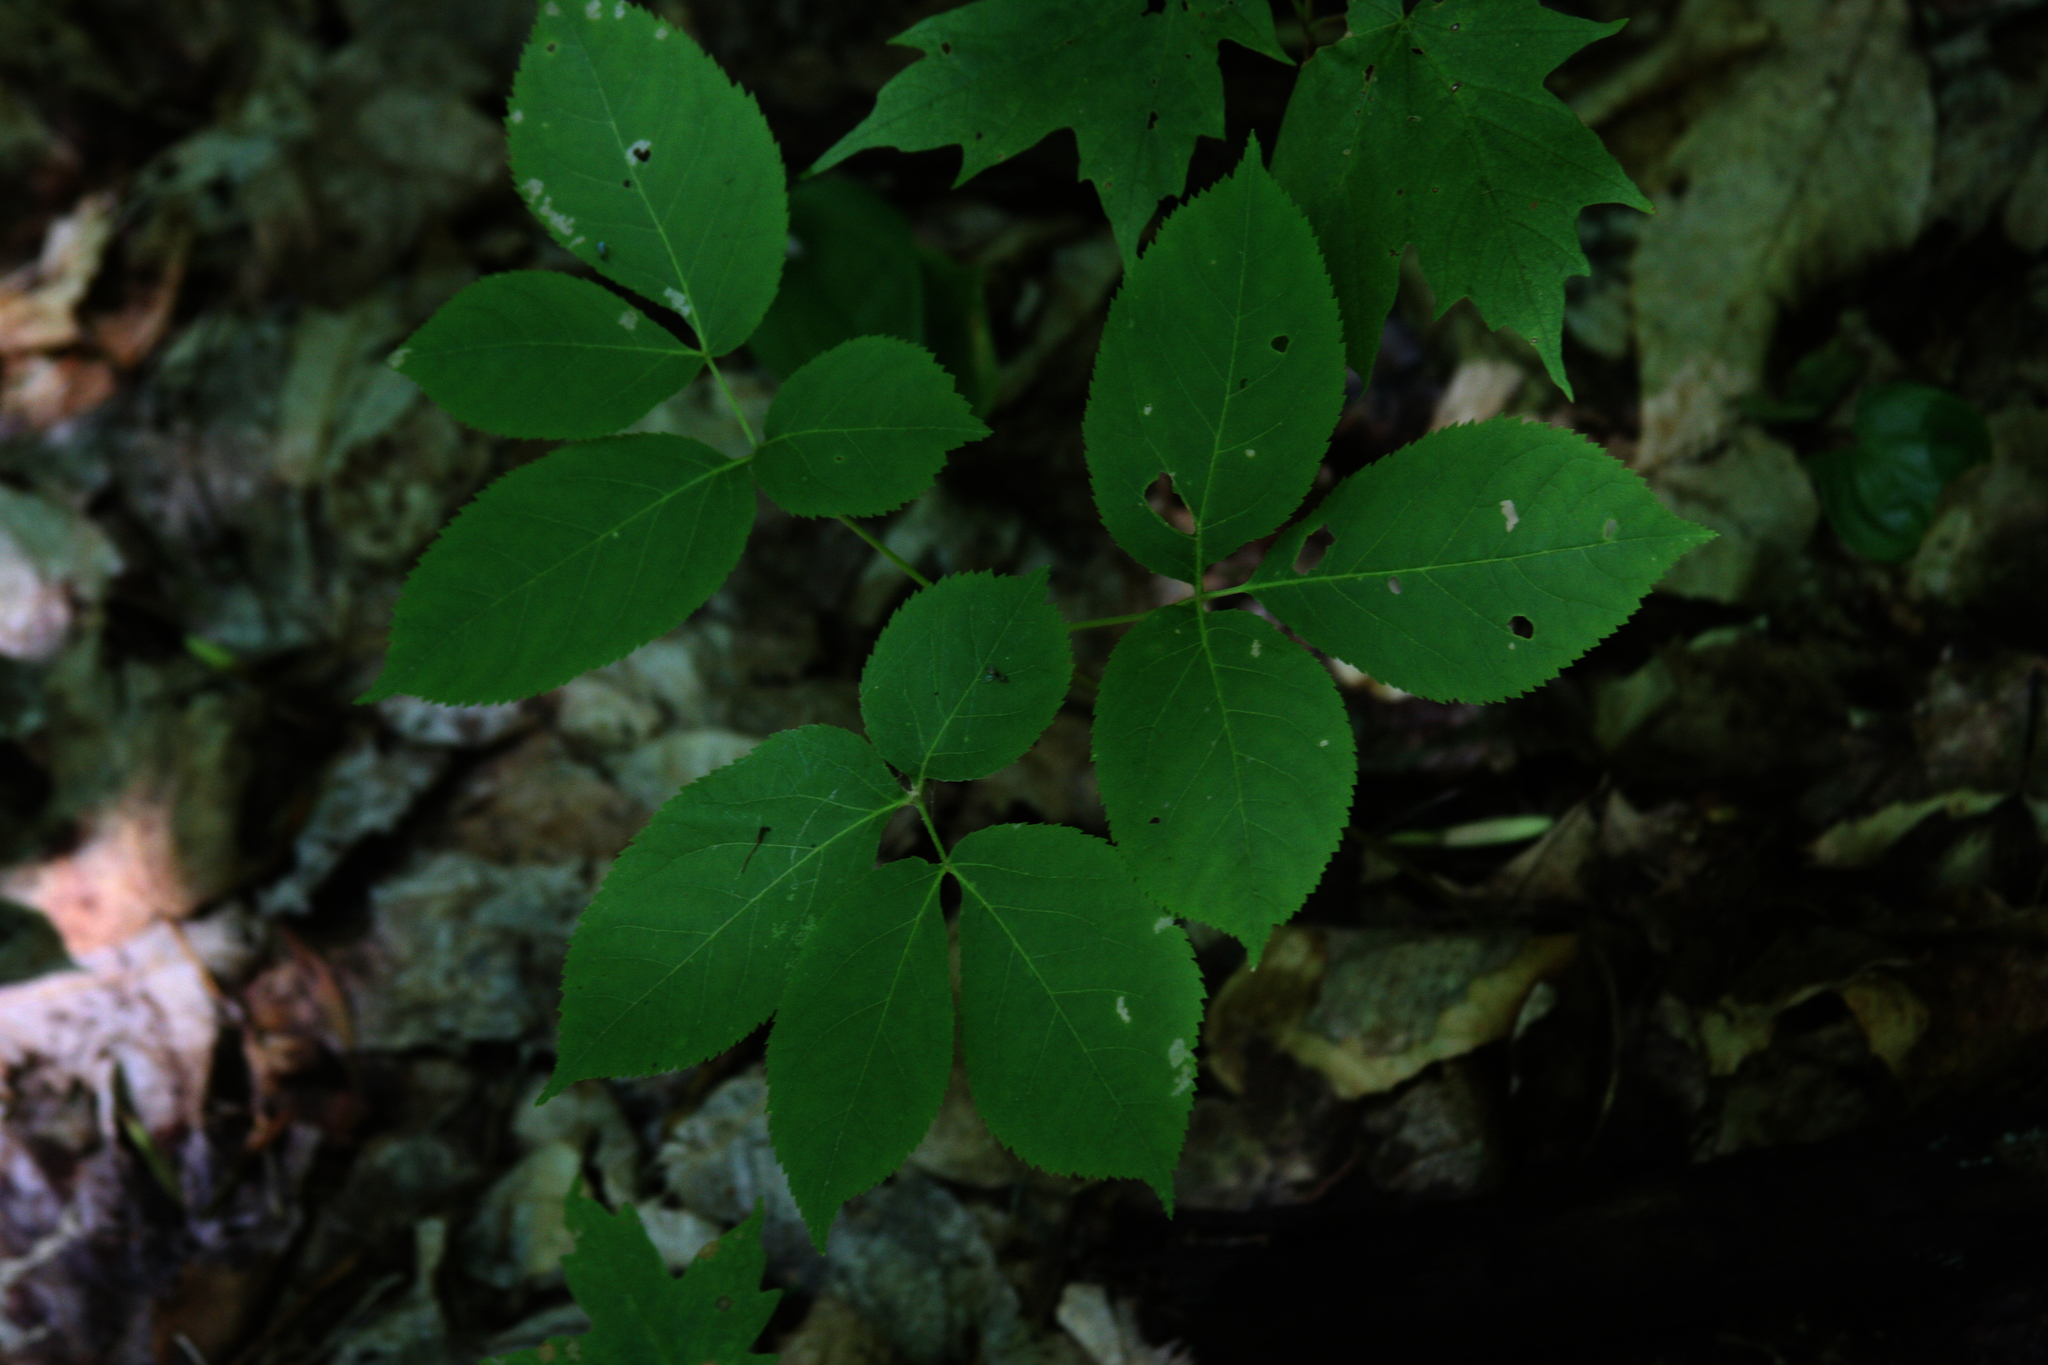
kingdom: Plantae
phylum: Tracheophyta
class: Magnoliopsida
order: Apiales
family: Araliaceae
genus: Aralia
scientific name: Aralia nudicaulis
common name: Wild sarsaparilla
